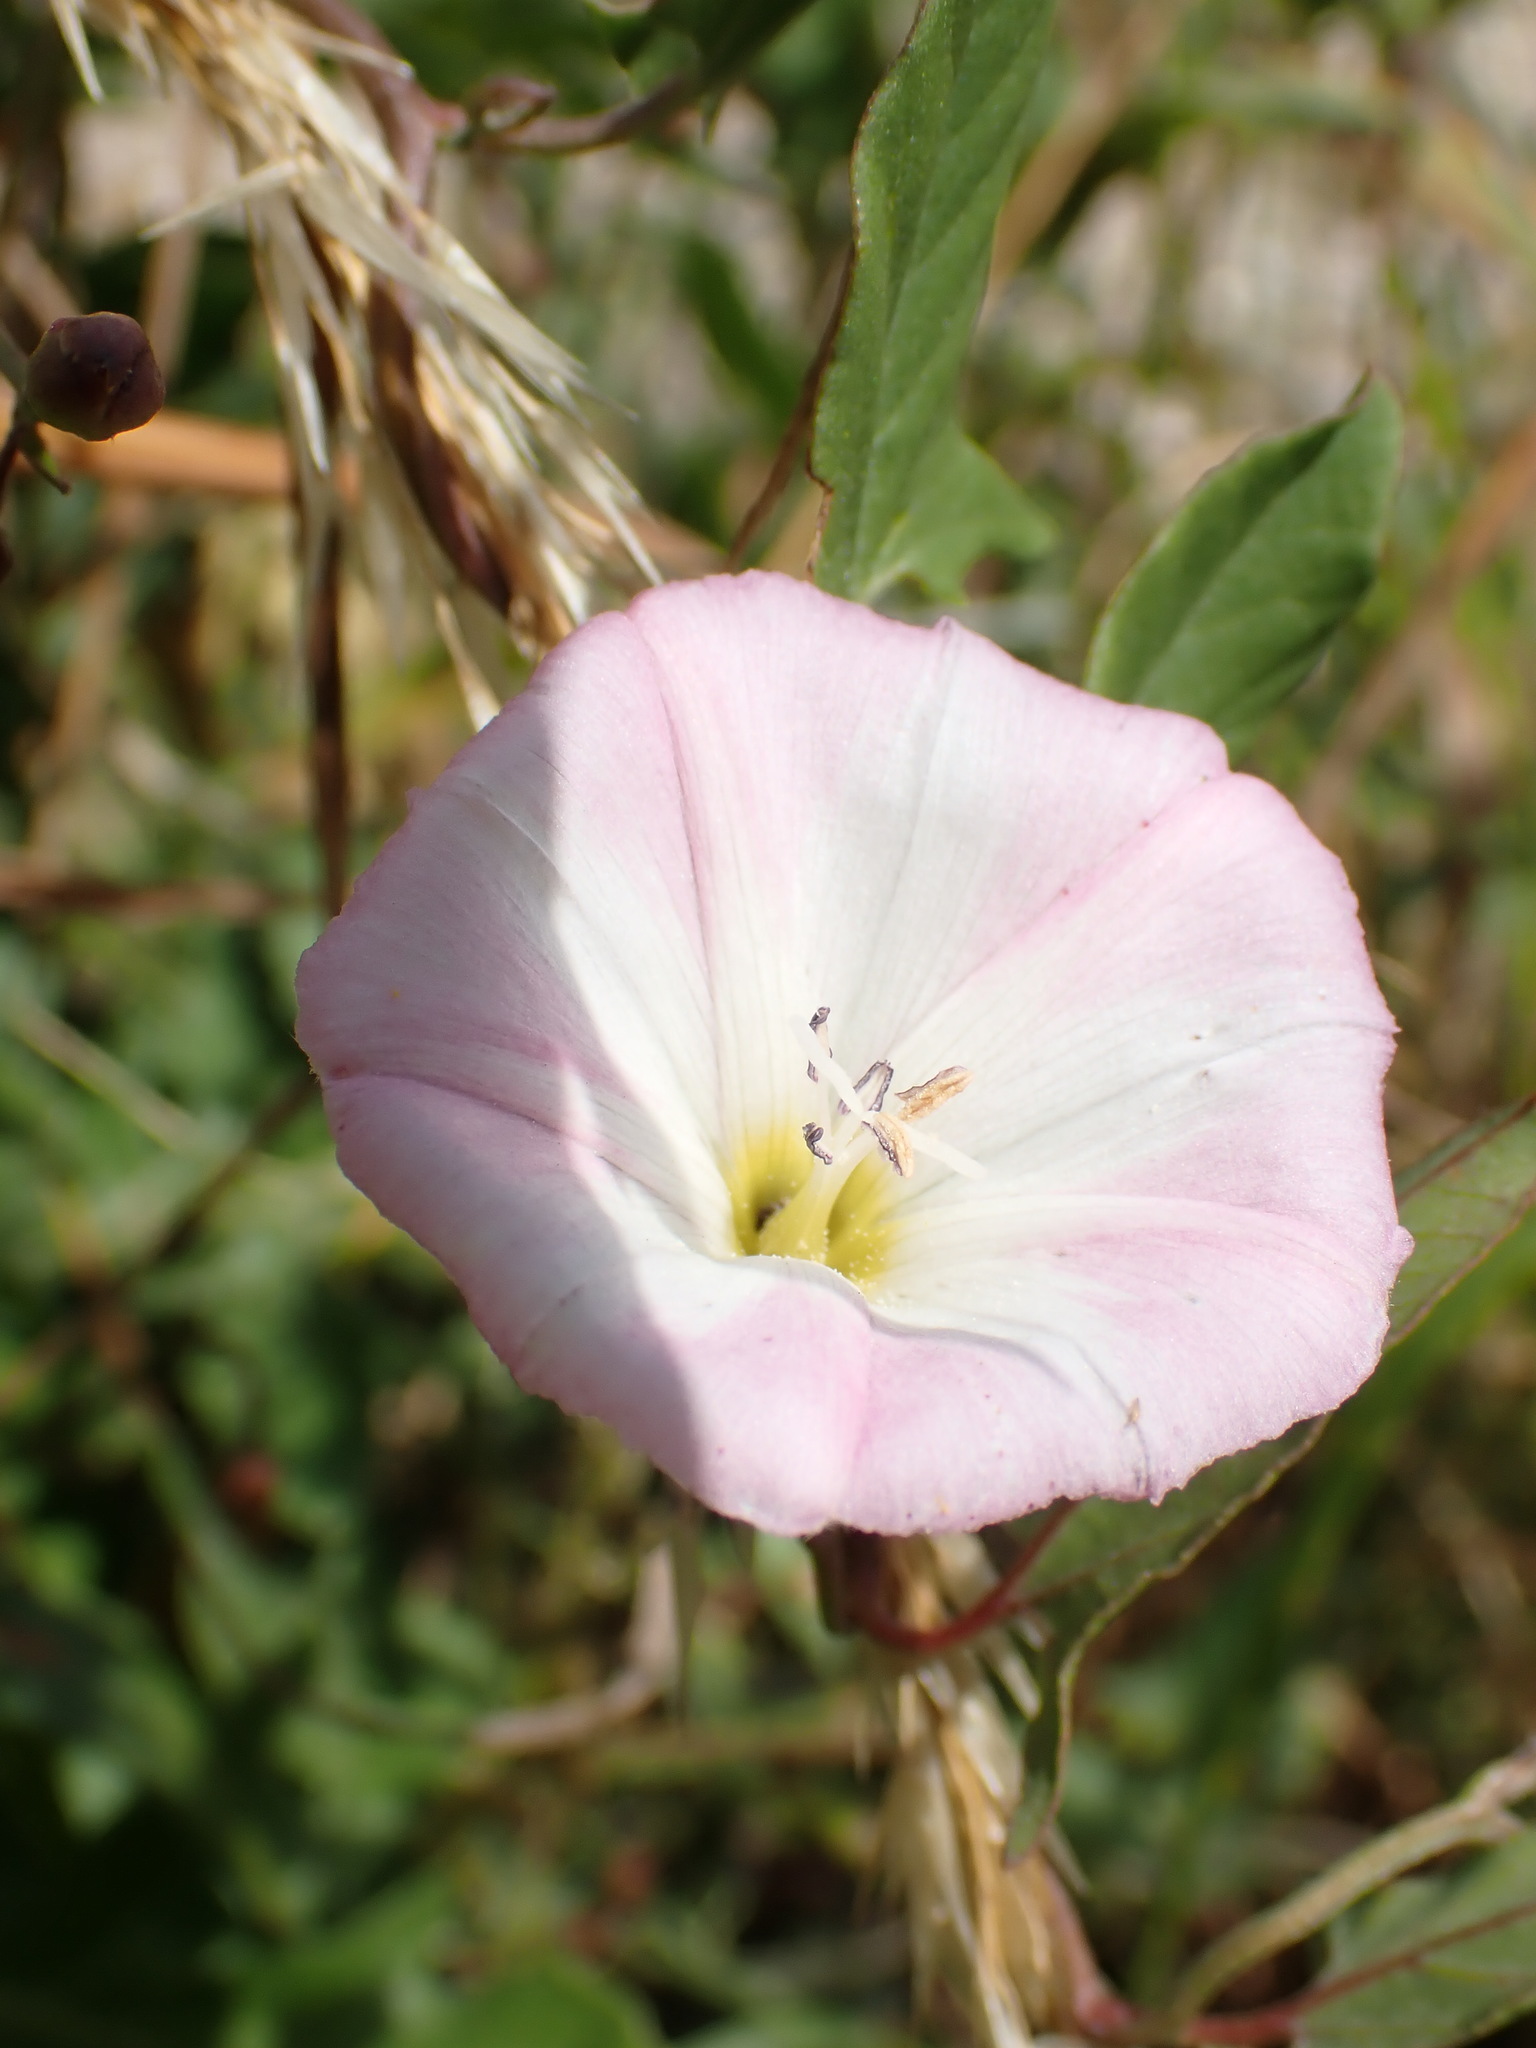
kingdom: Plantae
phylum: Tracheophyta
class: Magnoliopsida
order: Solanales
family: Convolvulaceae
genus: Convolvulus
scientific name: Convolvulus arvensis
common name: Field bindweed
